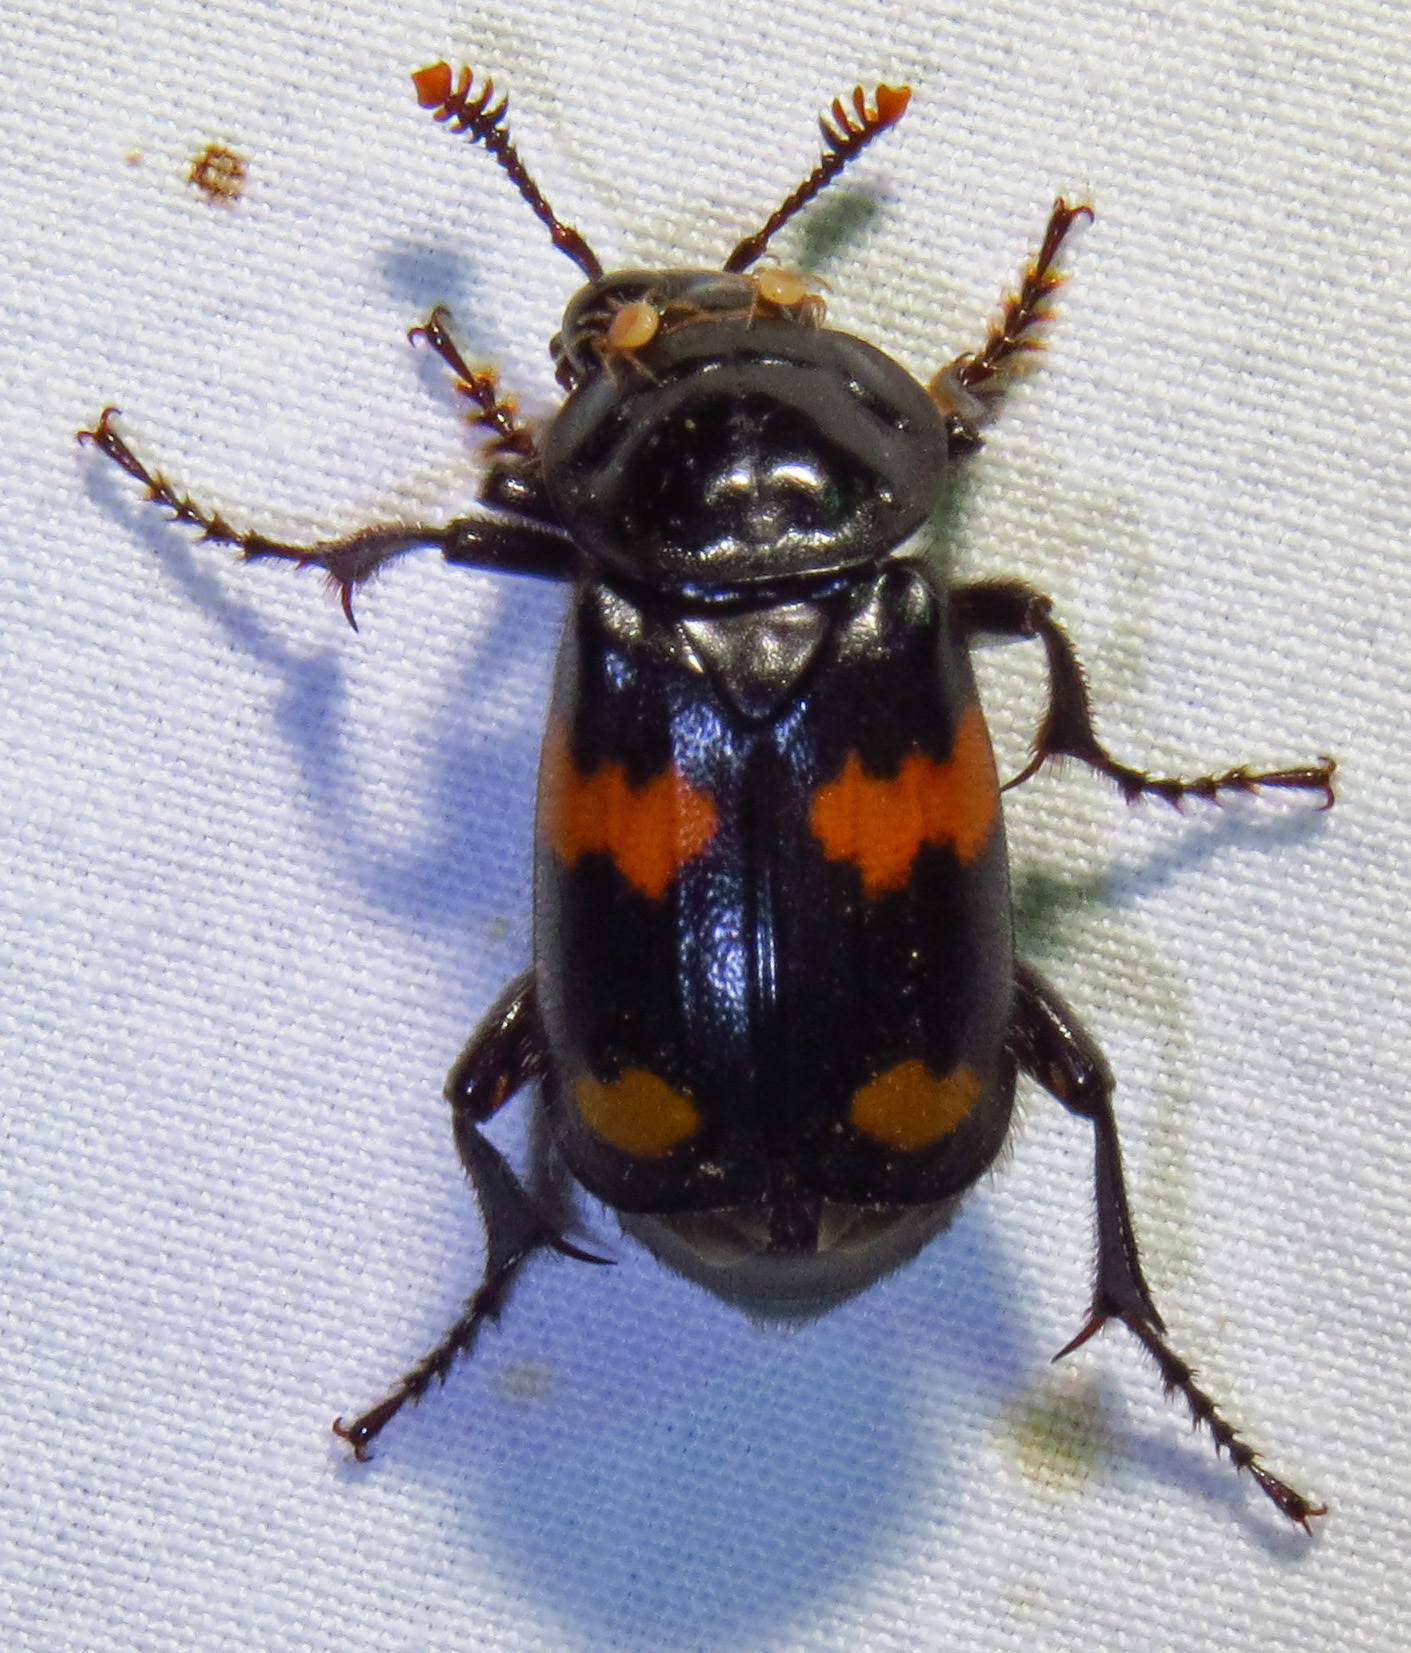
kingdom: Animalia
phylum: Arthropoda
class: Insecta
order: Coleoptera
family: Staphylinidae
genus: Nicrophorus
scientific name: Nicrophorus orbicollis
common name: Roundneck sexton beetle
